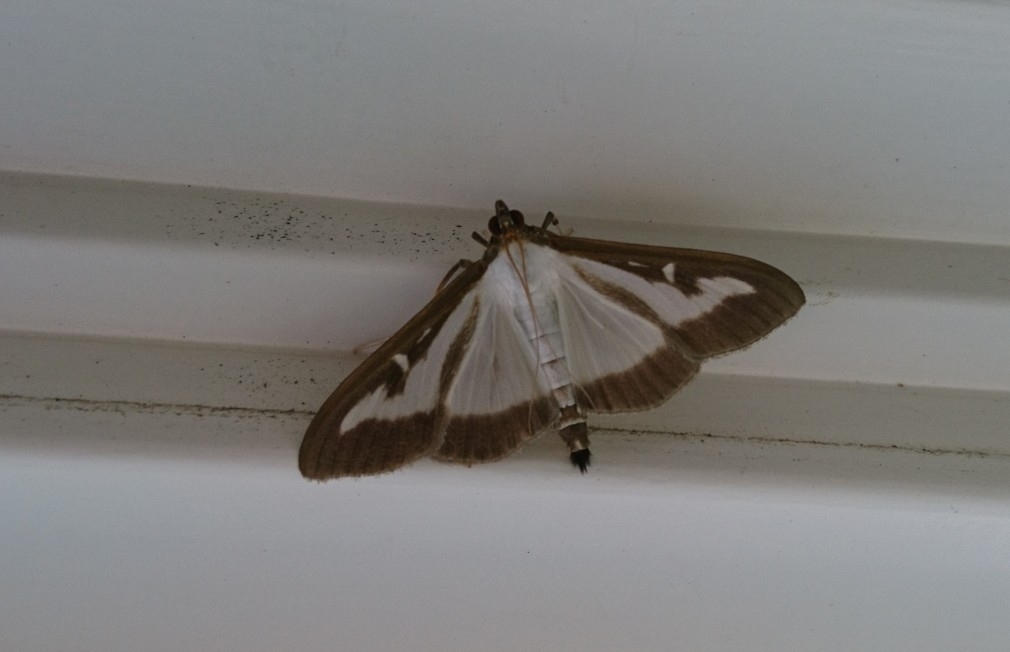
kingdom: Animalia
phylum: Arthropoda
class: Insecta
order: Lepidoptera
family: Crambidae
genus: Cydalima
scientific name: Cydalima perspectalis
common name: Box tree moth
